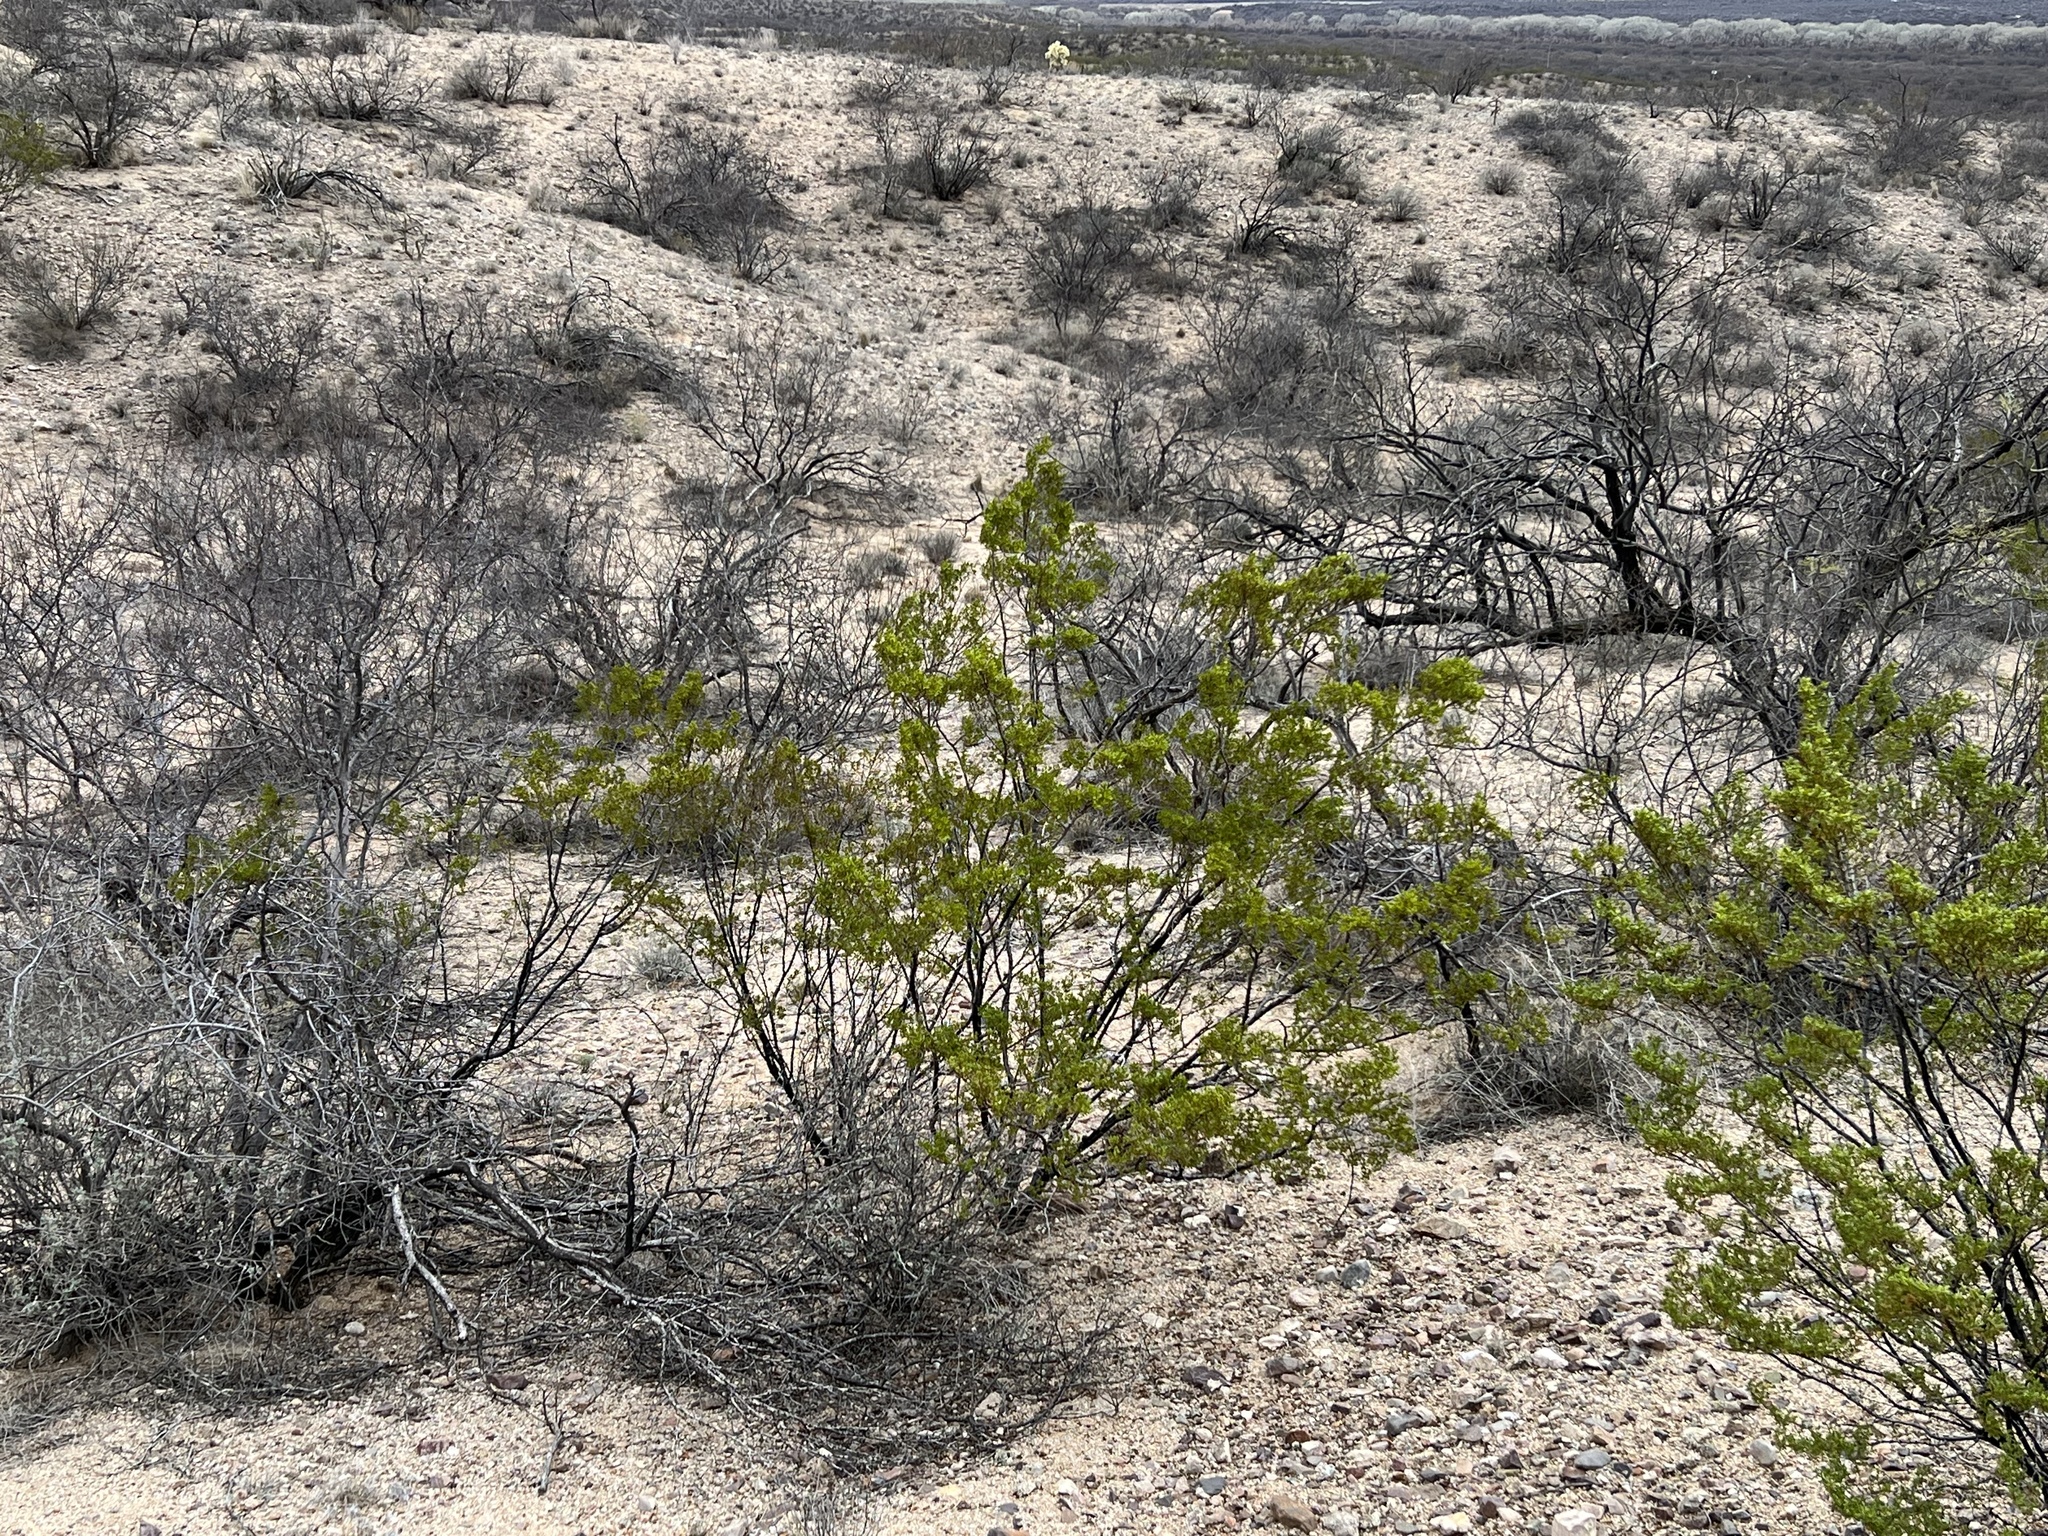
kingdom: Plantae
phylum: Tracheophyta
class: Magnoliopsida
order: Zygophyllales
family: Zygophyllaceae
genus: Larrea
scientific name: Larrea tridentata
